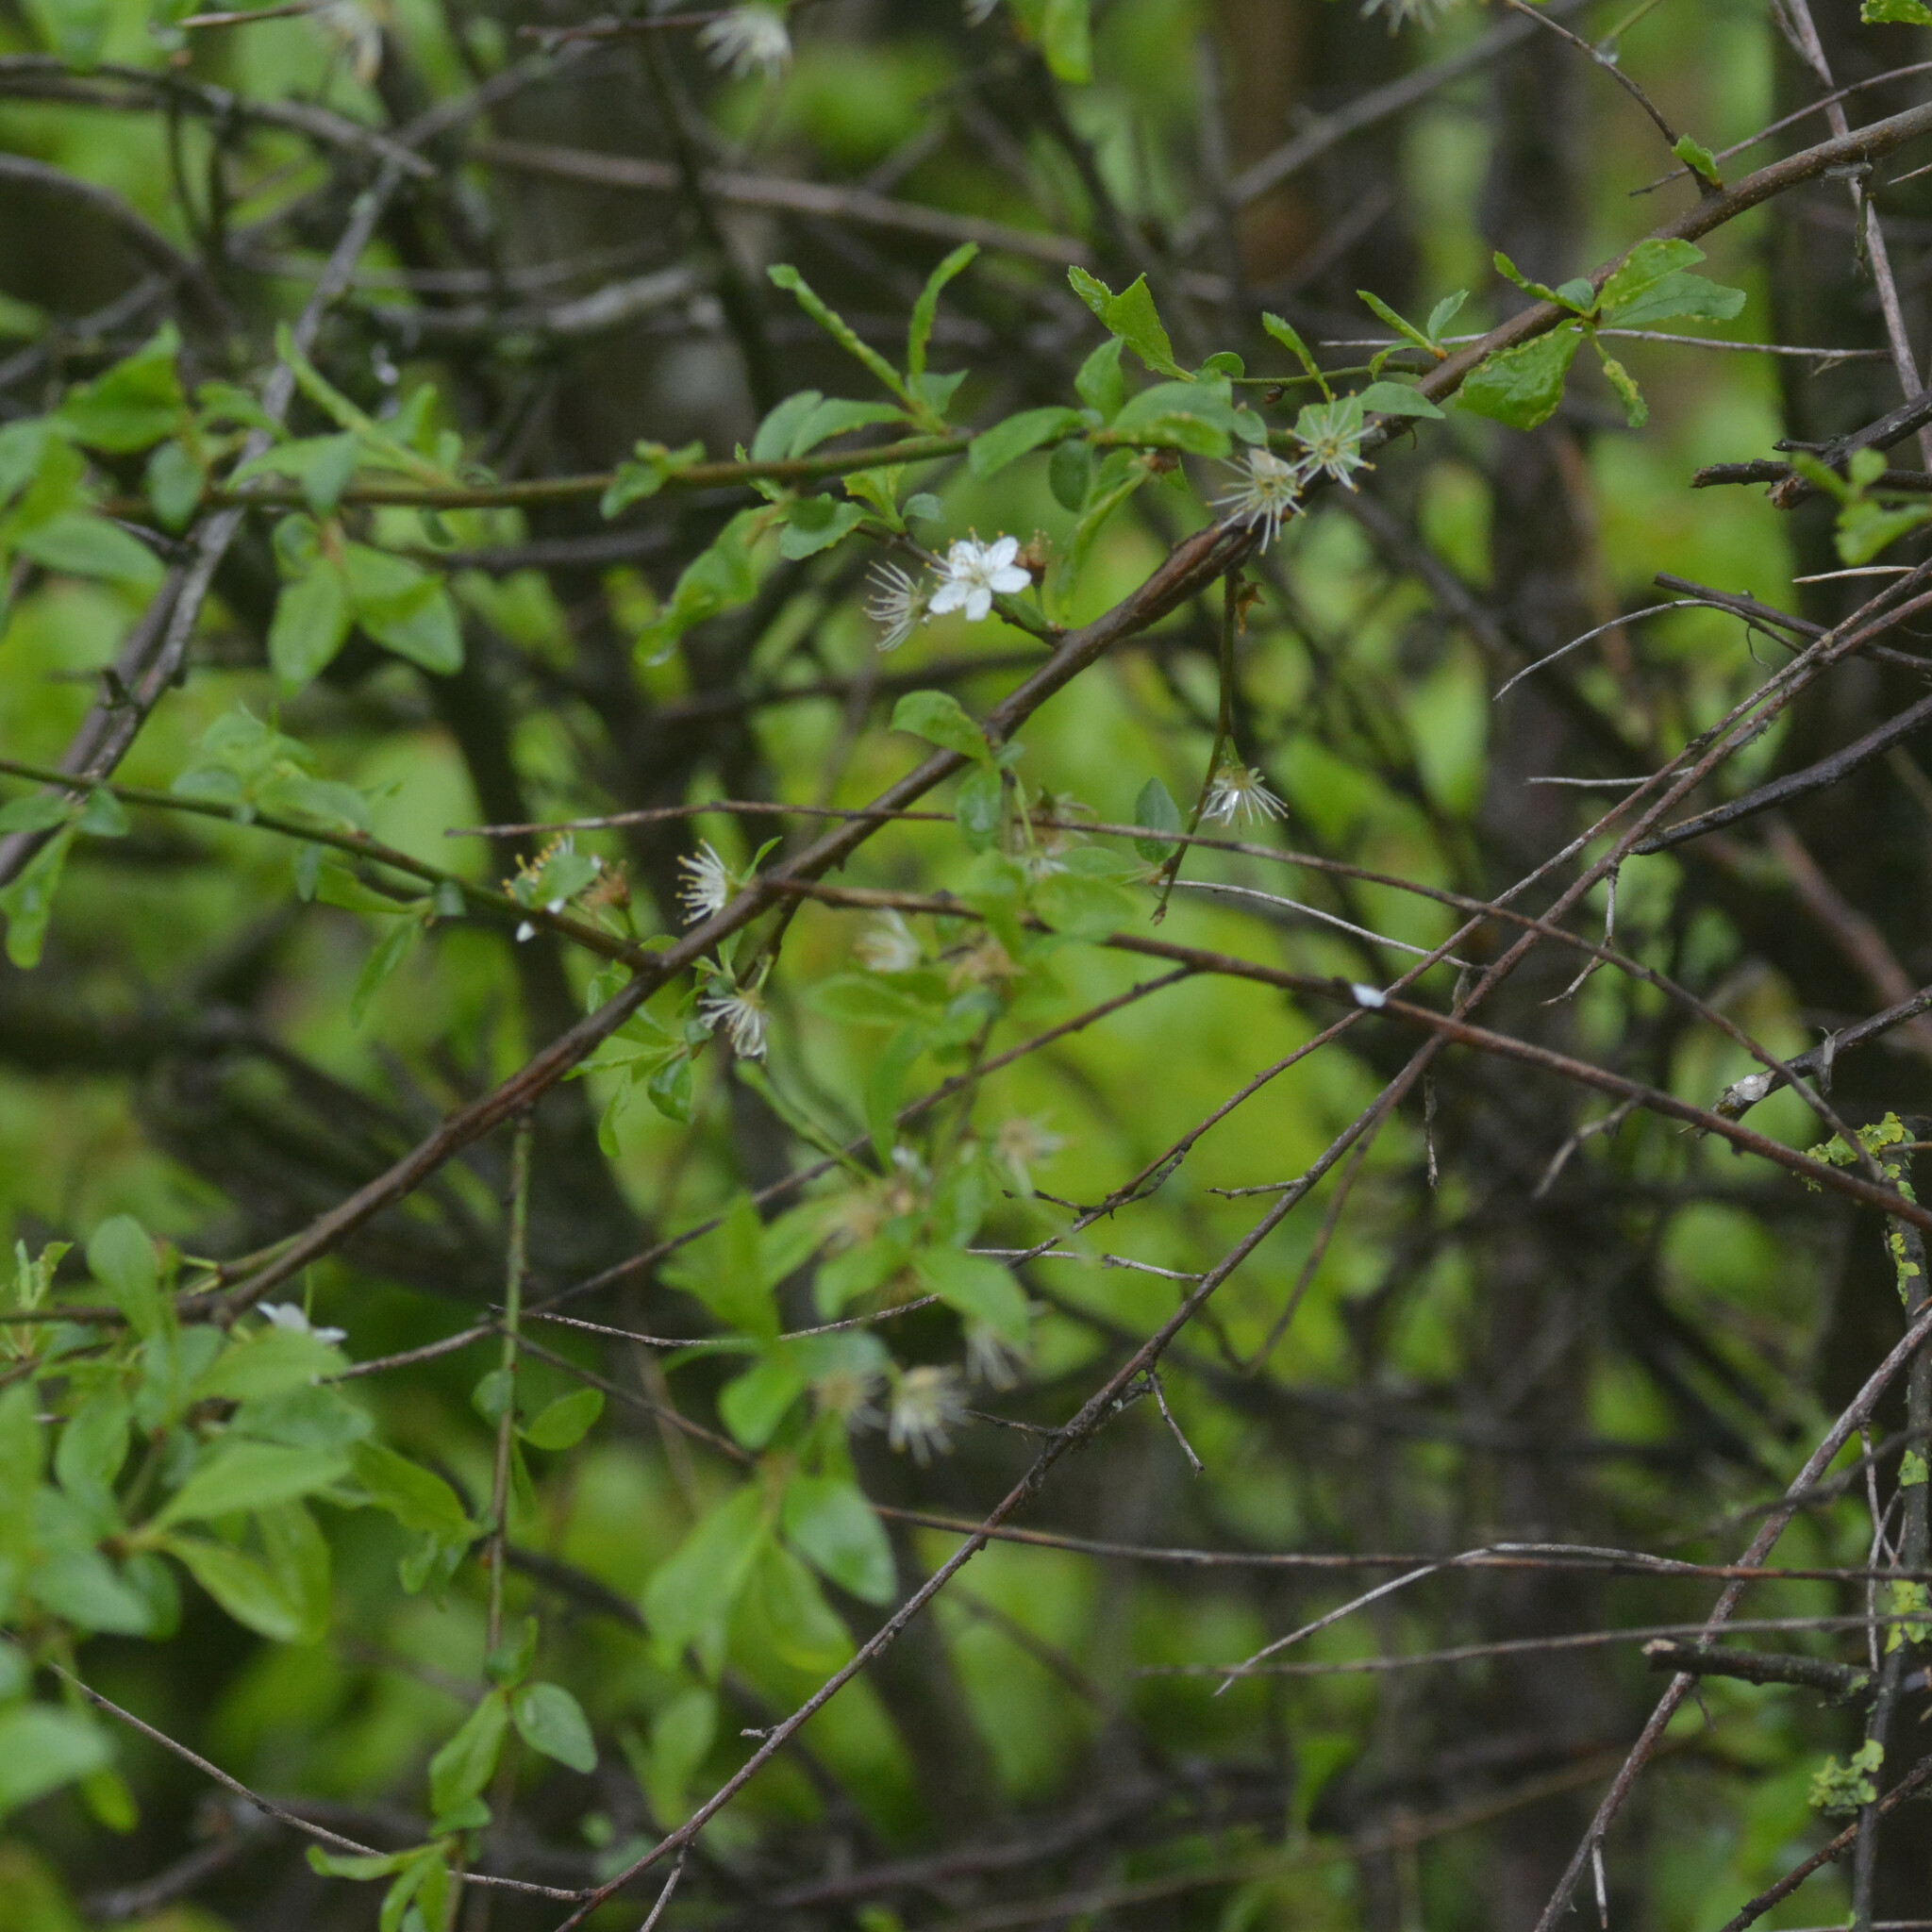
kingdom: Plantae
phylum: Tracheophyta
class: Magnoliopsida
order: Rosales
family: Rosaceae
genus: Prunus
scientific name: Prunus spinosa
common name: Blackthorn
